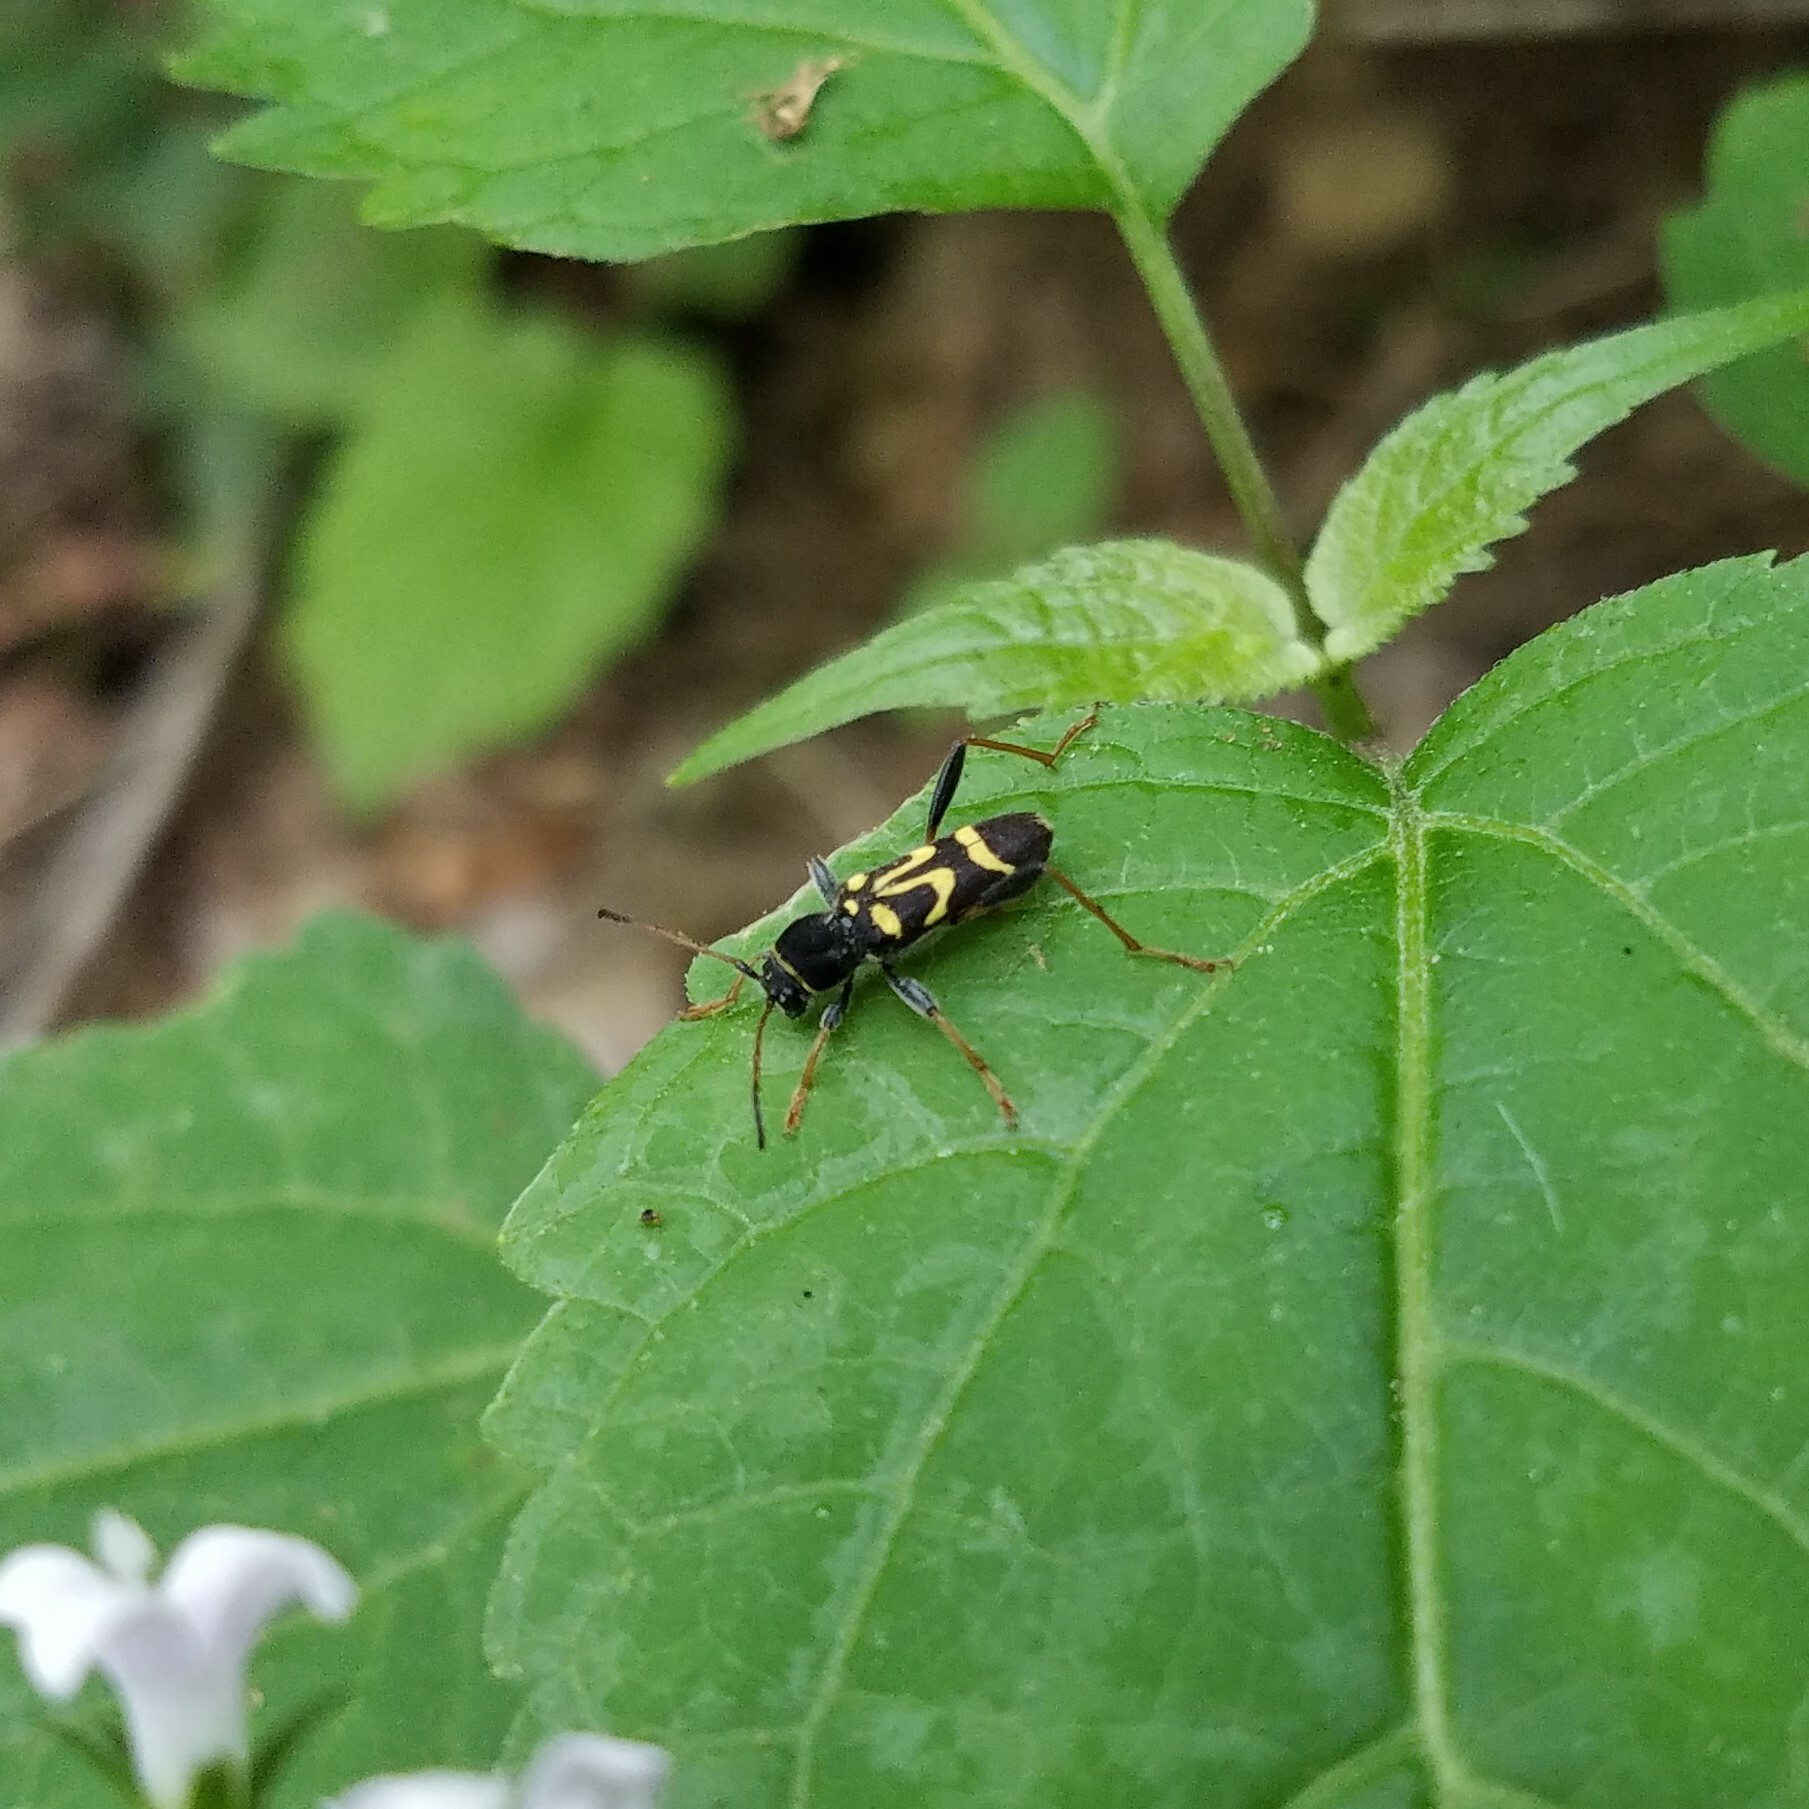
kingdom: Animalia
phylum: Arthropoda
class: Insecta
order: Coleoptera
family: Cerambycidae
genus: Clytus
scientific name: Clytus ruricola
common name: Round-necked longhorn beetle
